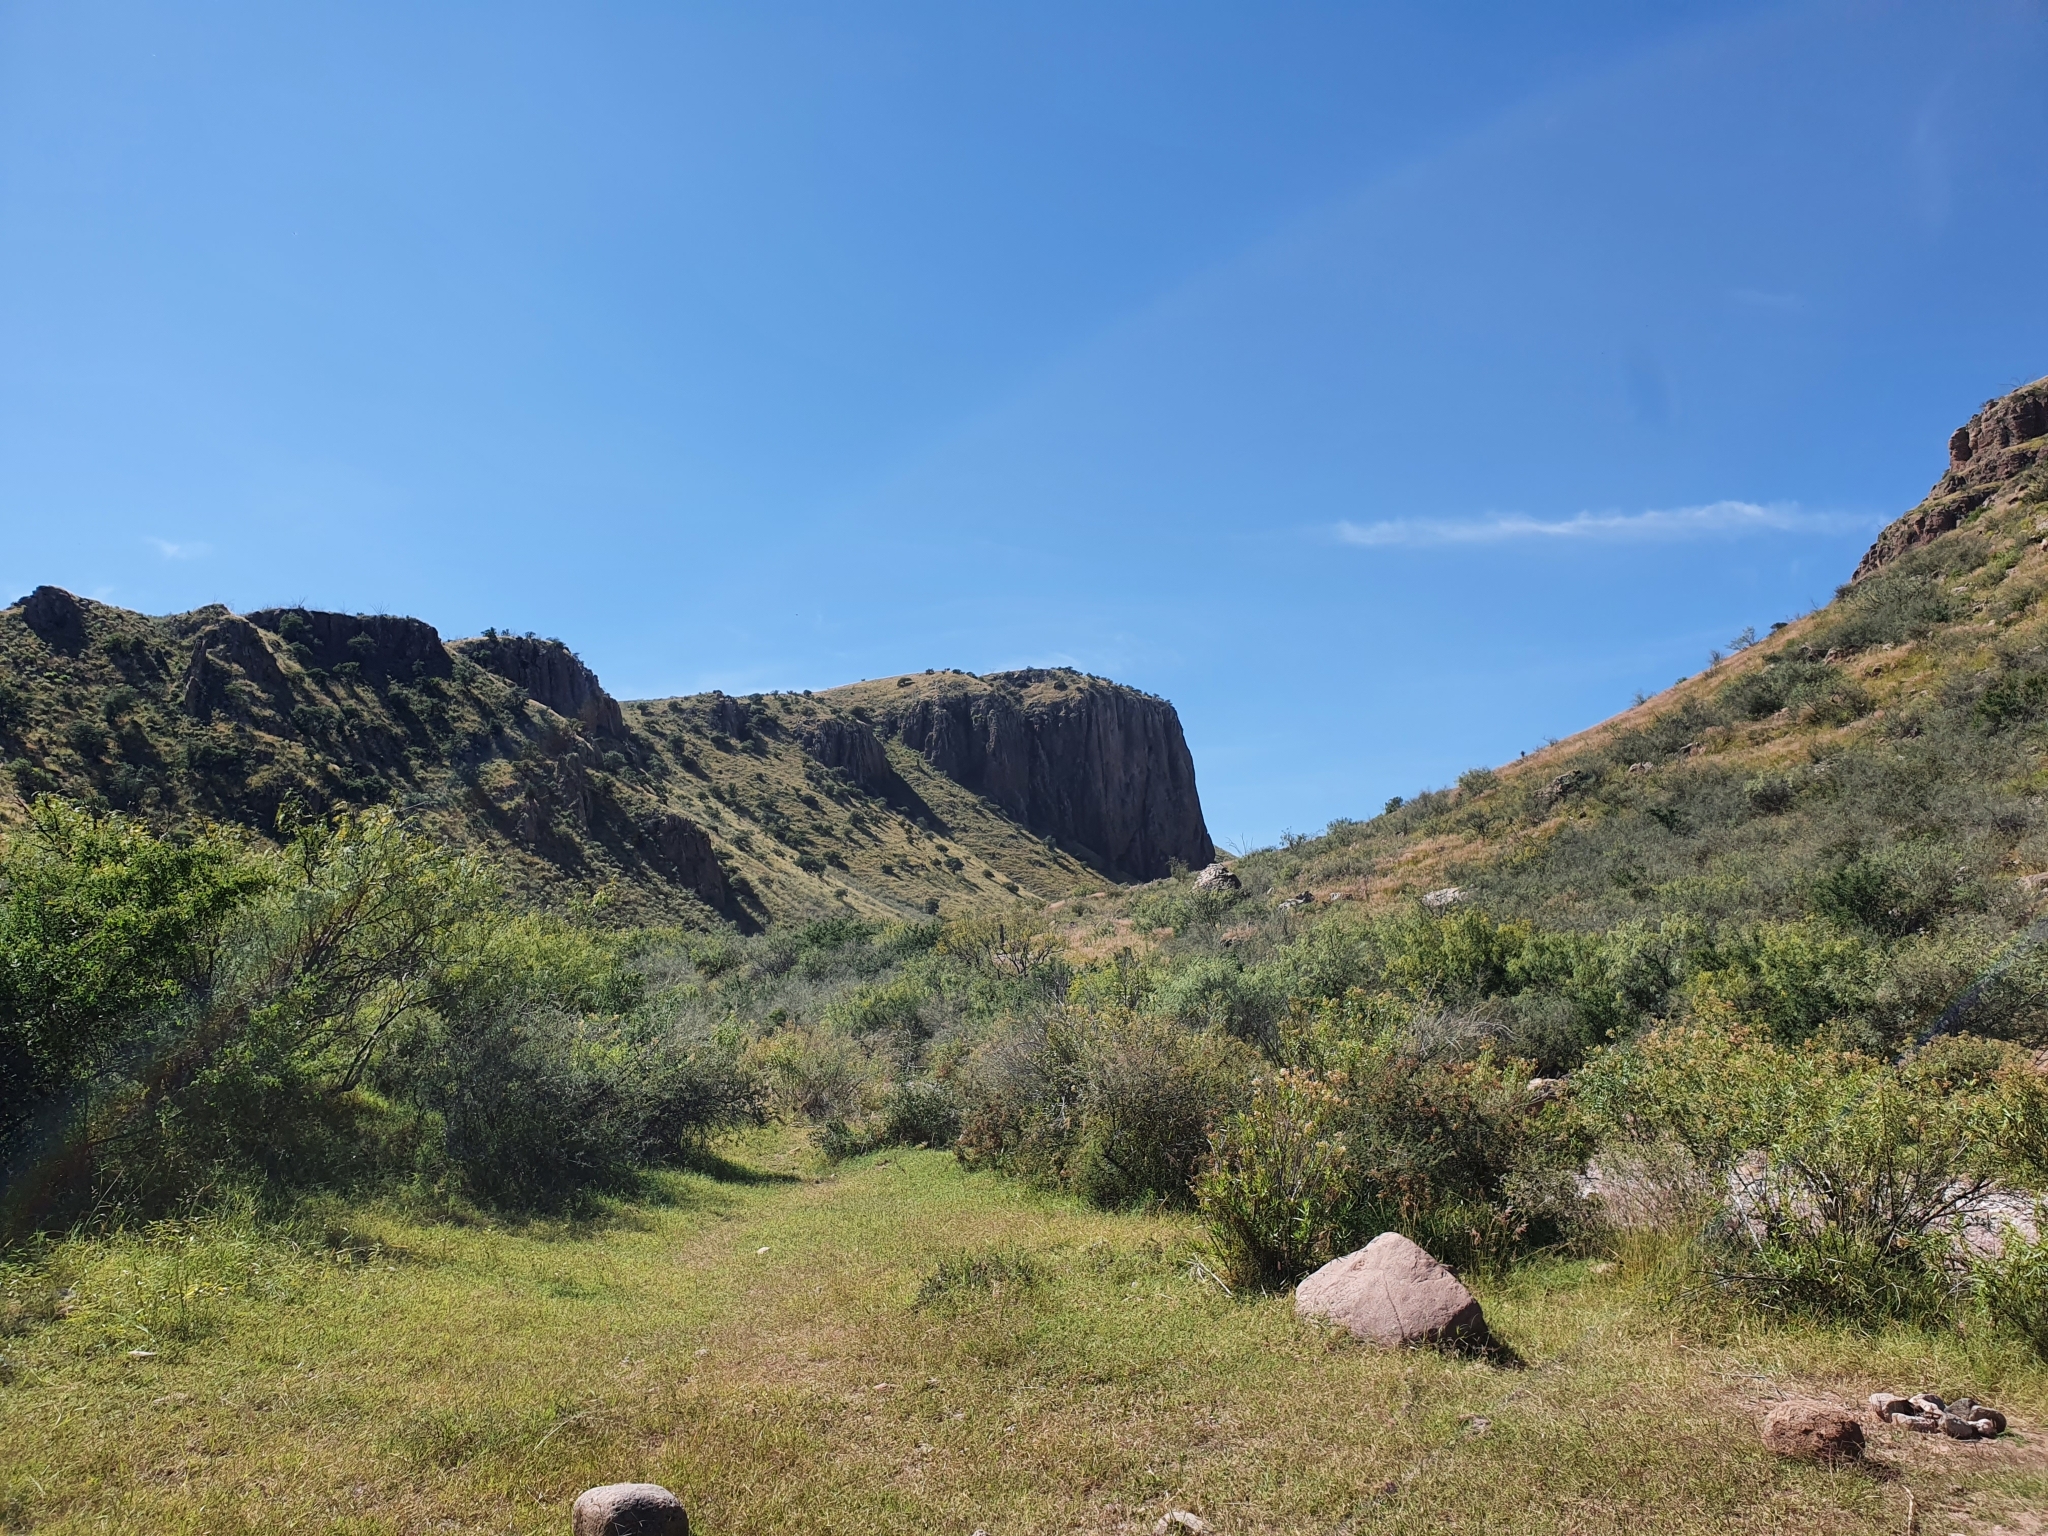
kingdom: Plantae
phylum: Tracheophyta
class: Magnoliopsida
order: Lamiales
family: Verbenaceae
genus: Aloysia
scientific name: Aloysia wrightii
